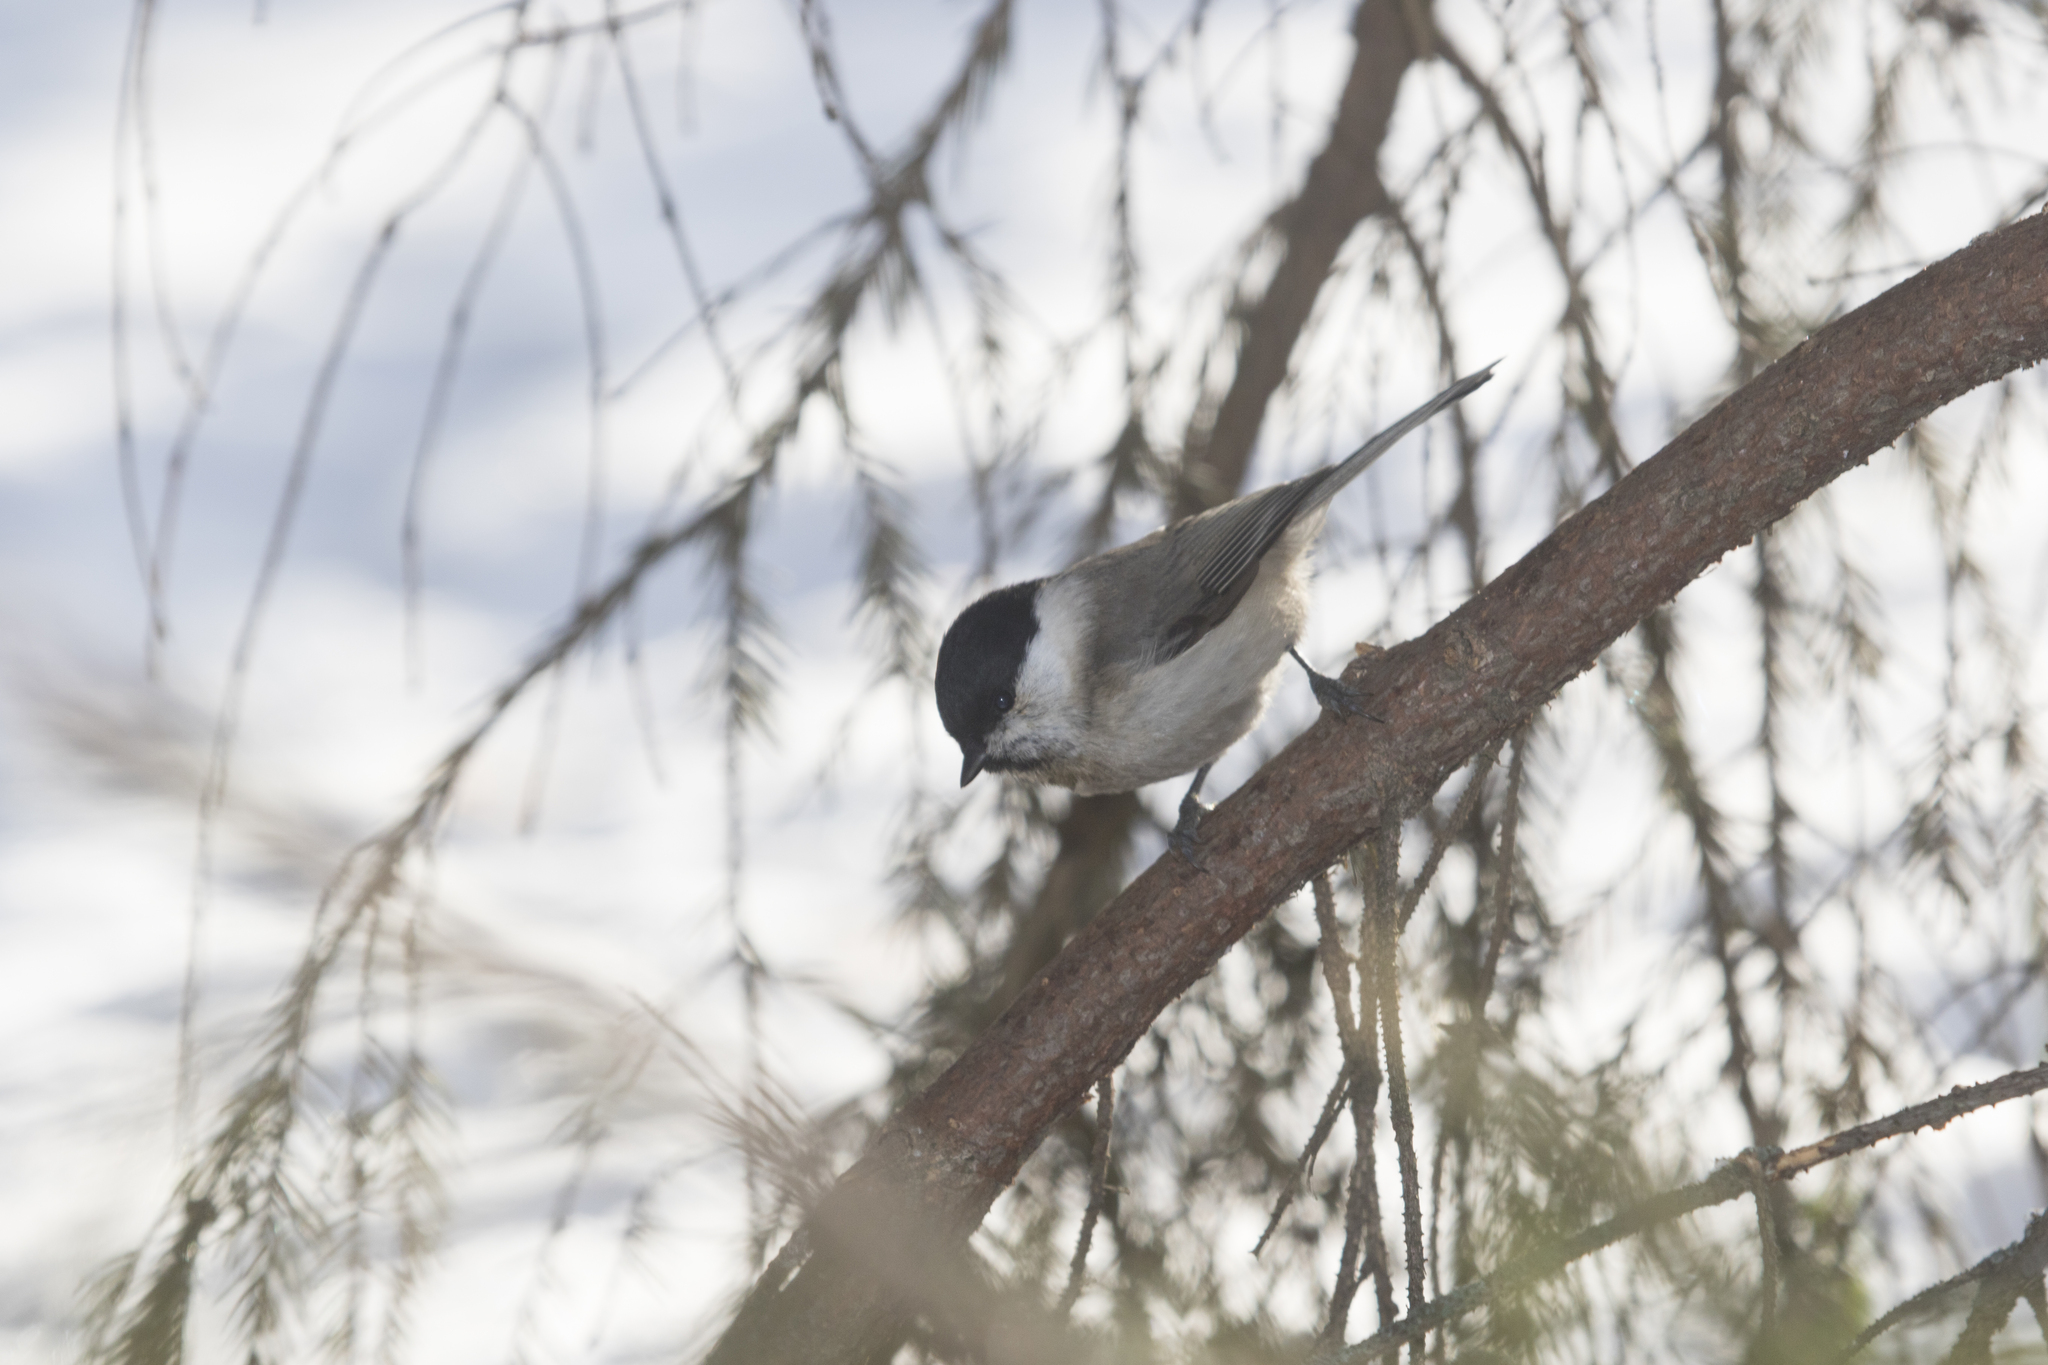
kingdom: Animalia
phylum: Chordata
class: Aves
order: Passeriformes
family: Paridae
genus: Poecile
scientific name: Poecile palustris
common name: Marsh tit
